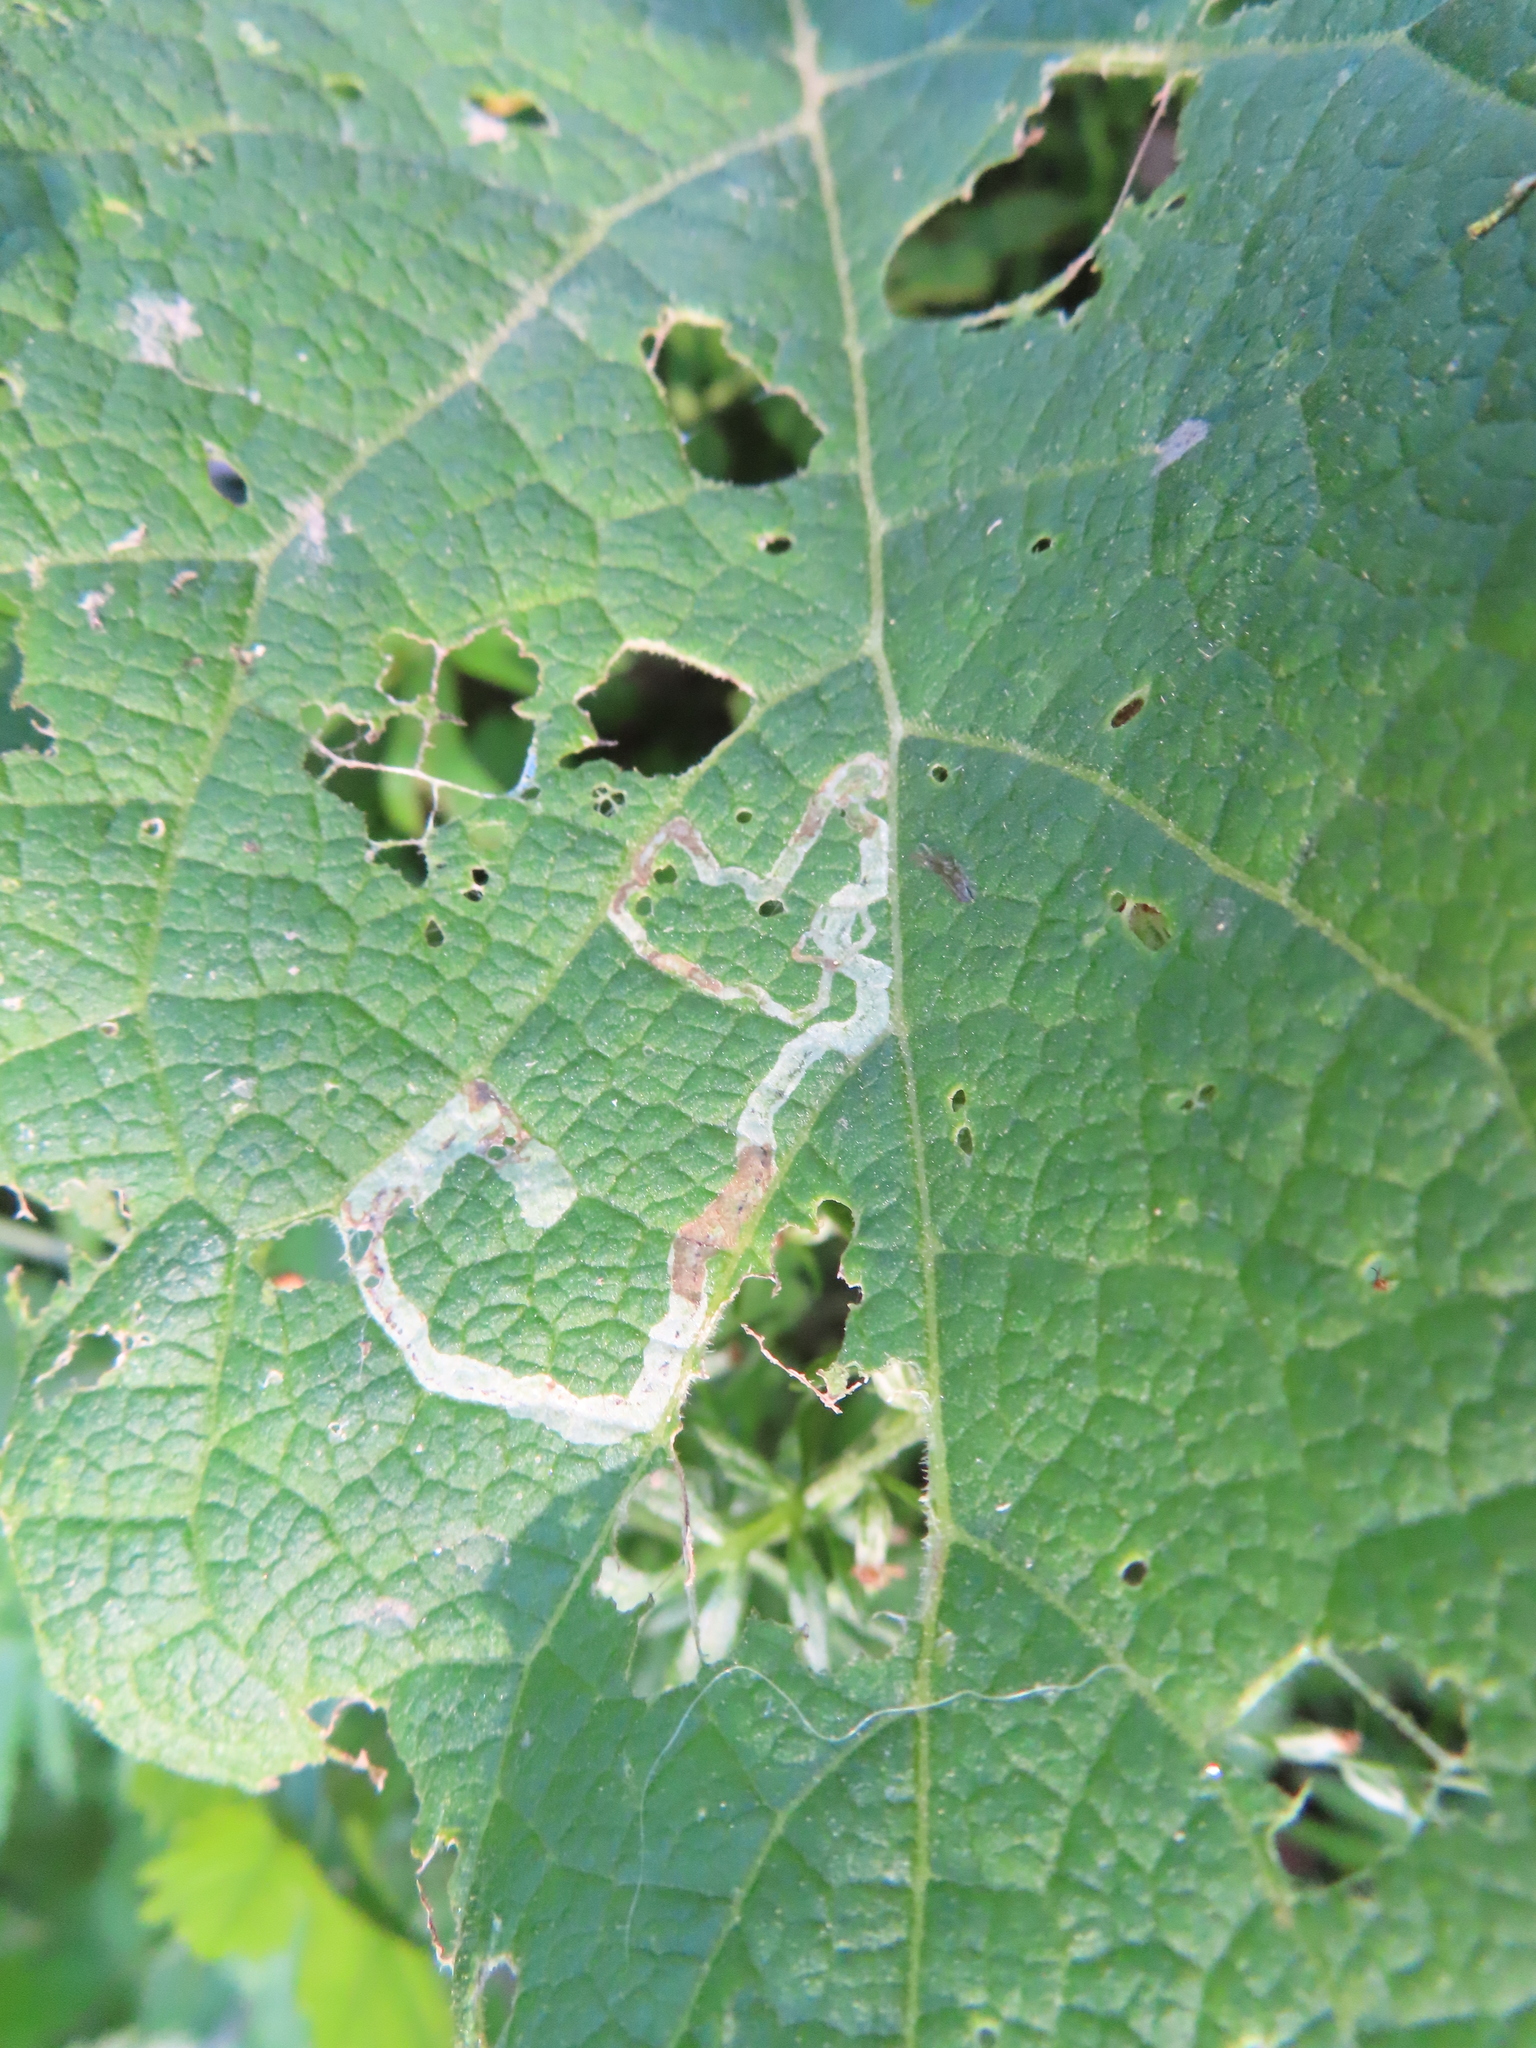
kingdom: Animalia
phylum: Arthropoda
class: Insecta
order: Diptera
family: Agromyzidae
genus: Liriomyza
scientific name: Liriomyza arctii
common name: Burdock leafminer
